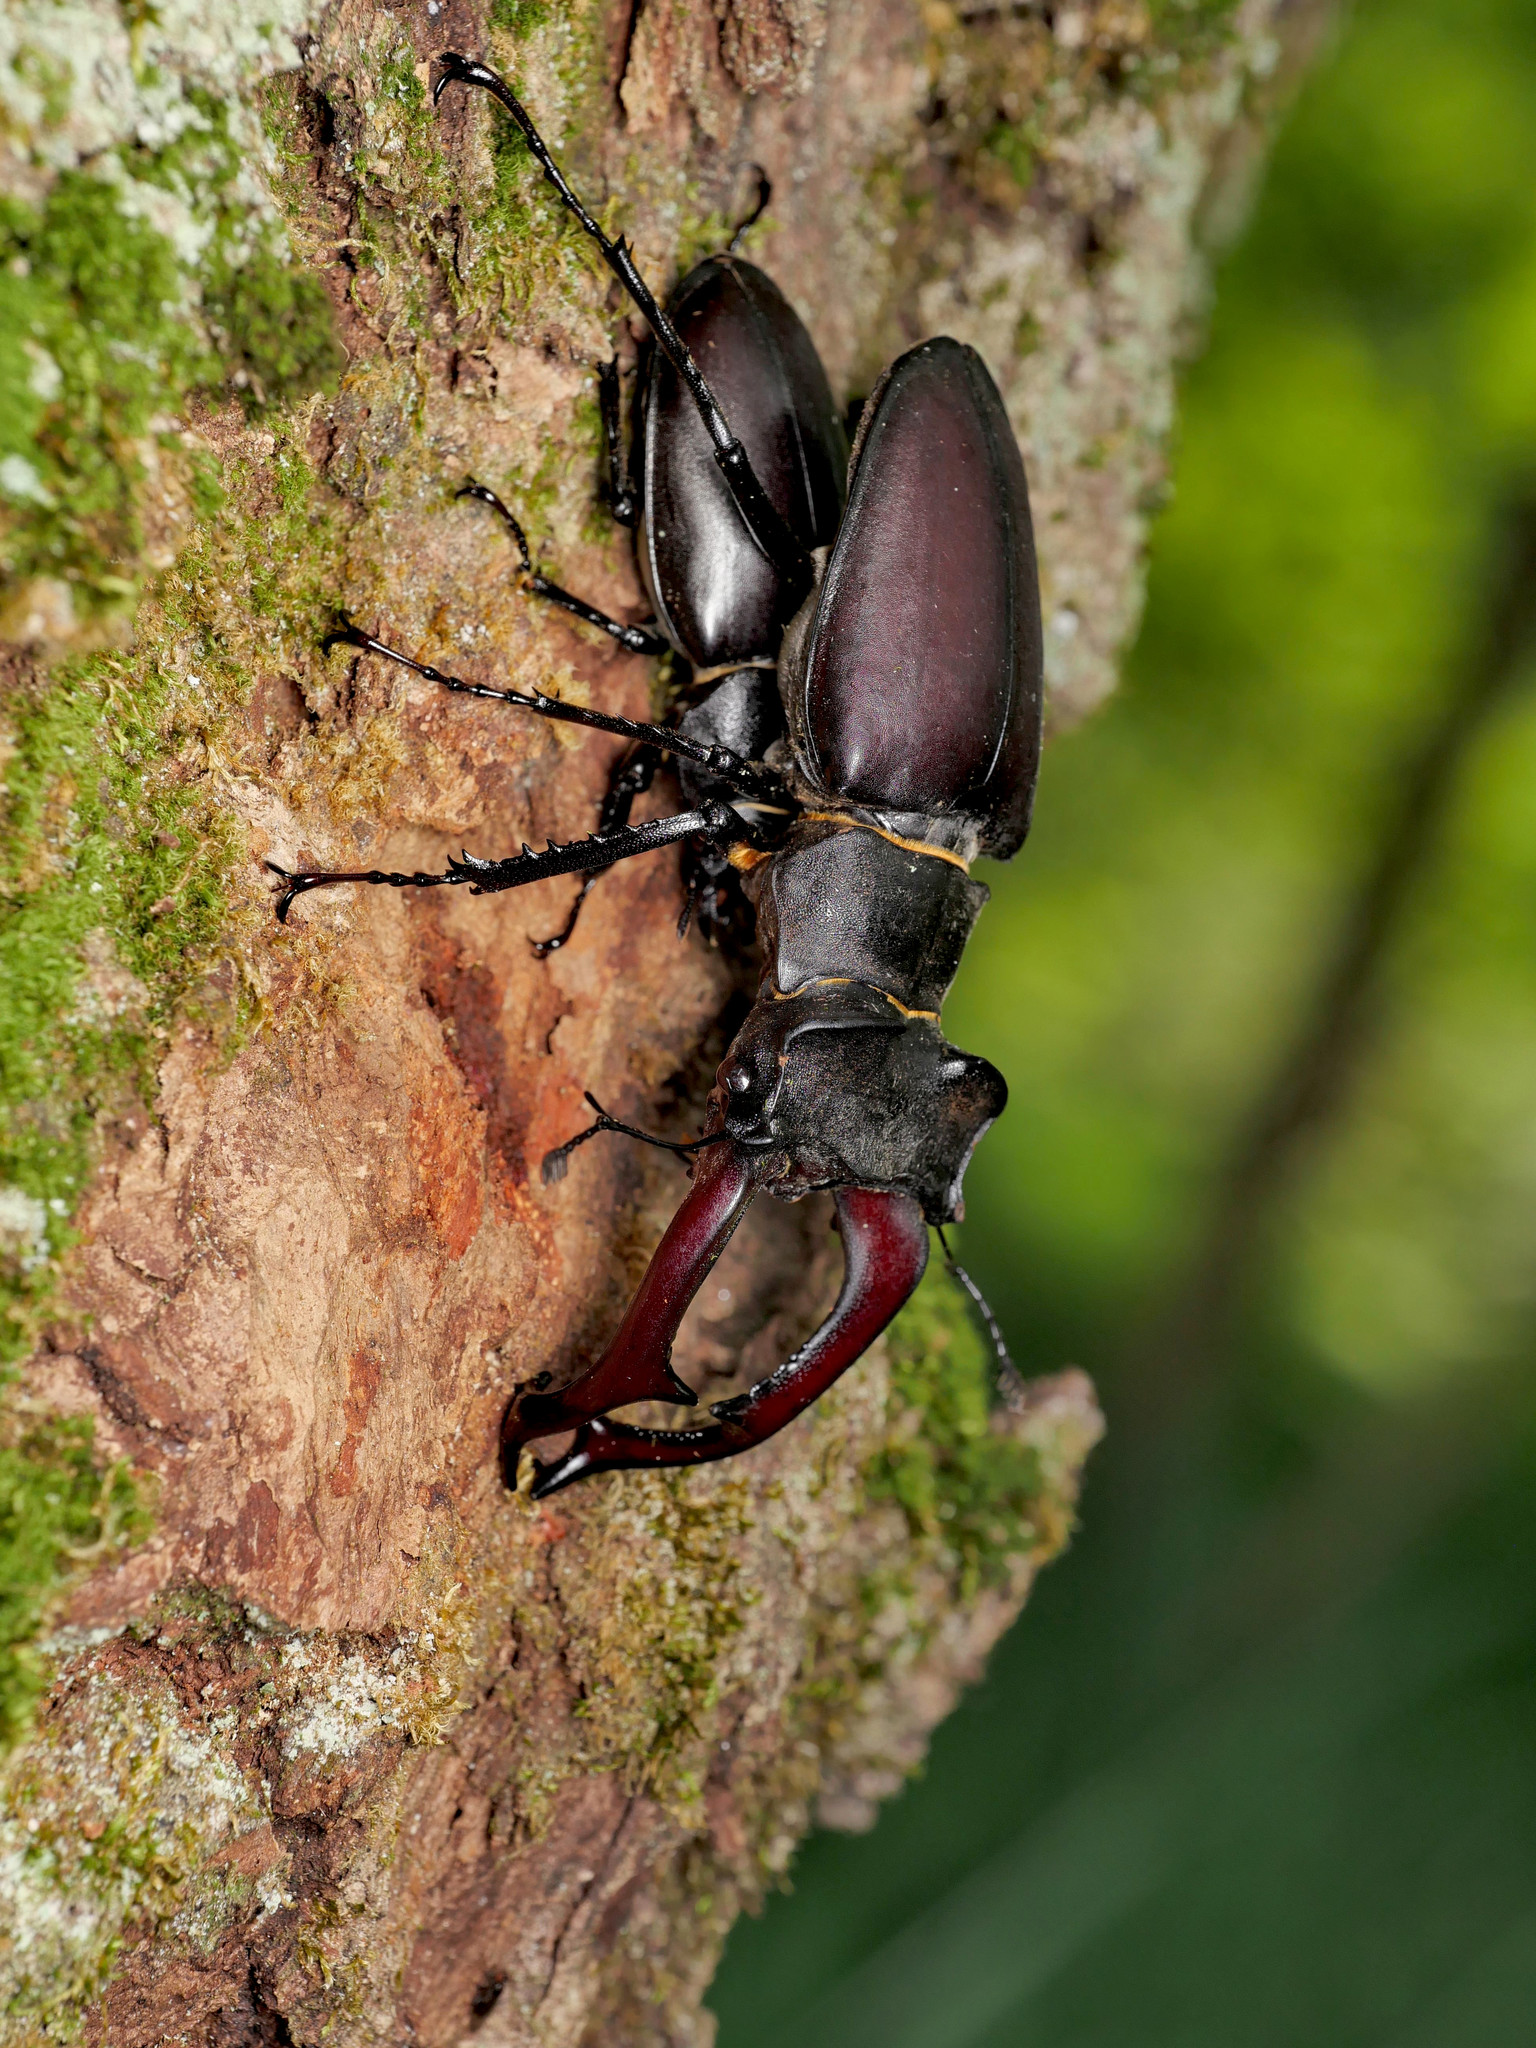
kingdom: Animalia
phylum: Arthropoda
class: Insecta
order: Coleoptera
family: Lucanidae
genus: Lucanus
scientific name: Lucanus cervus
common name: Stag beetle
